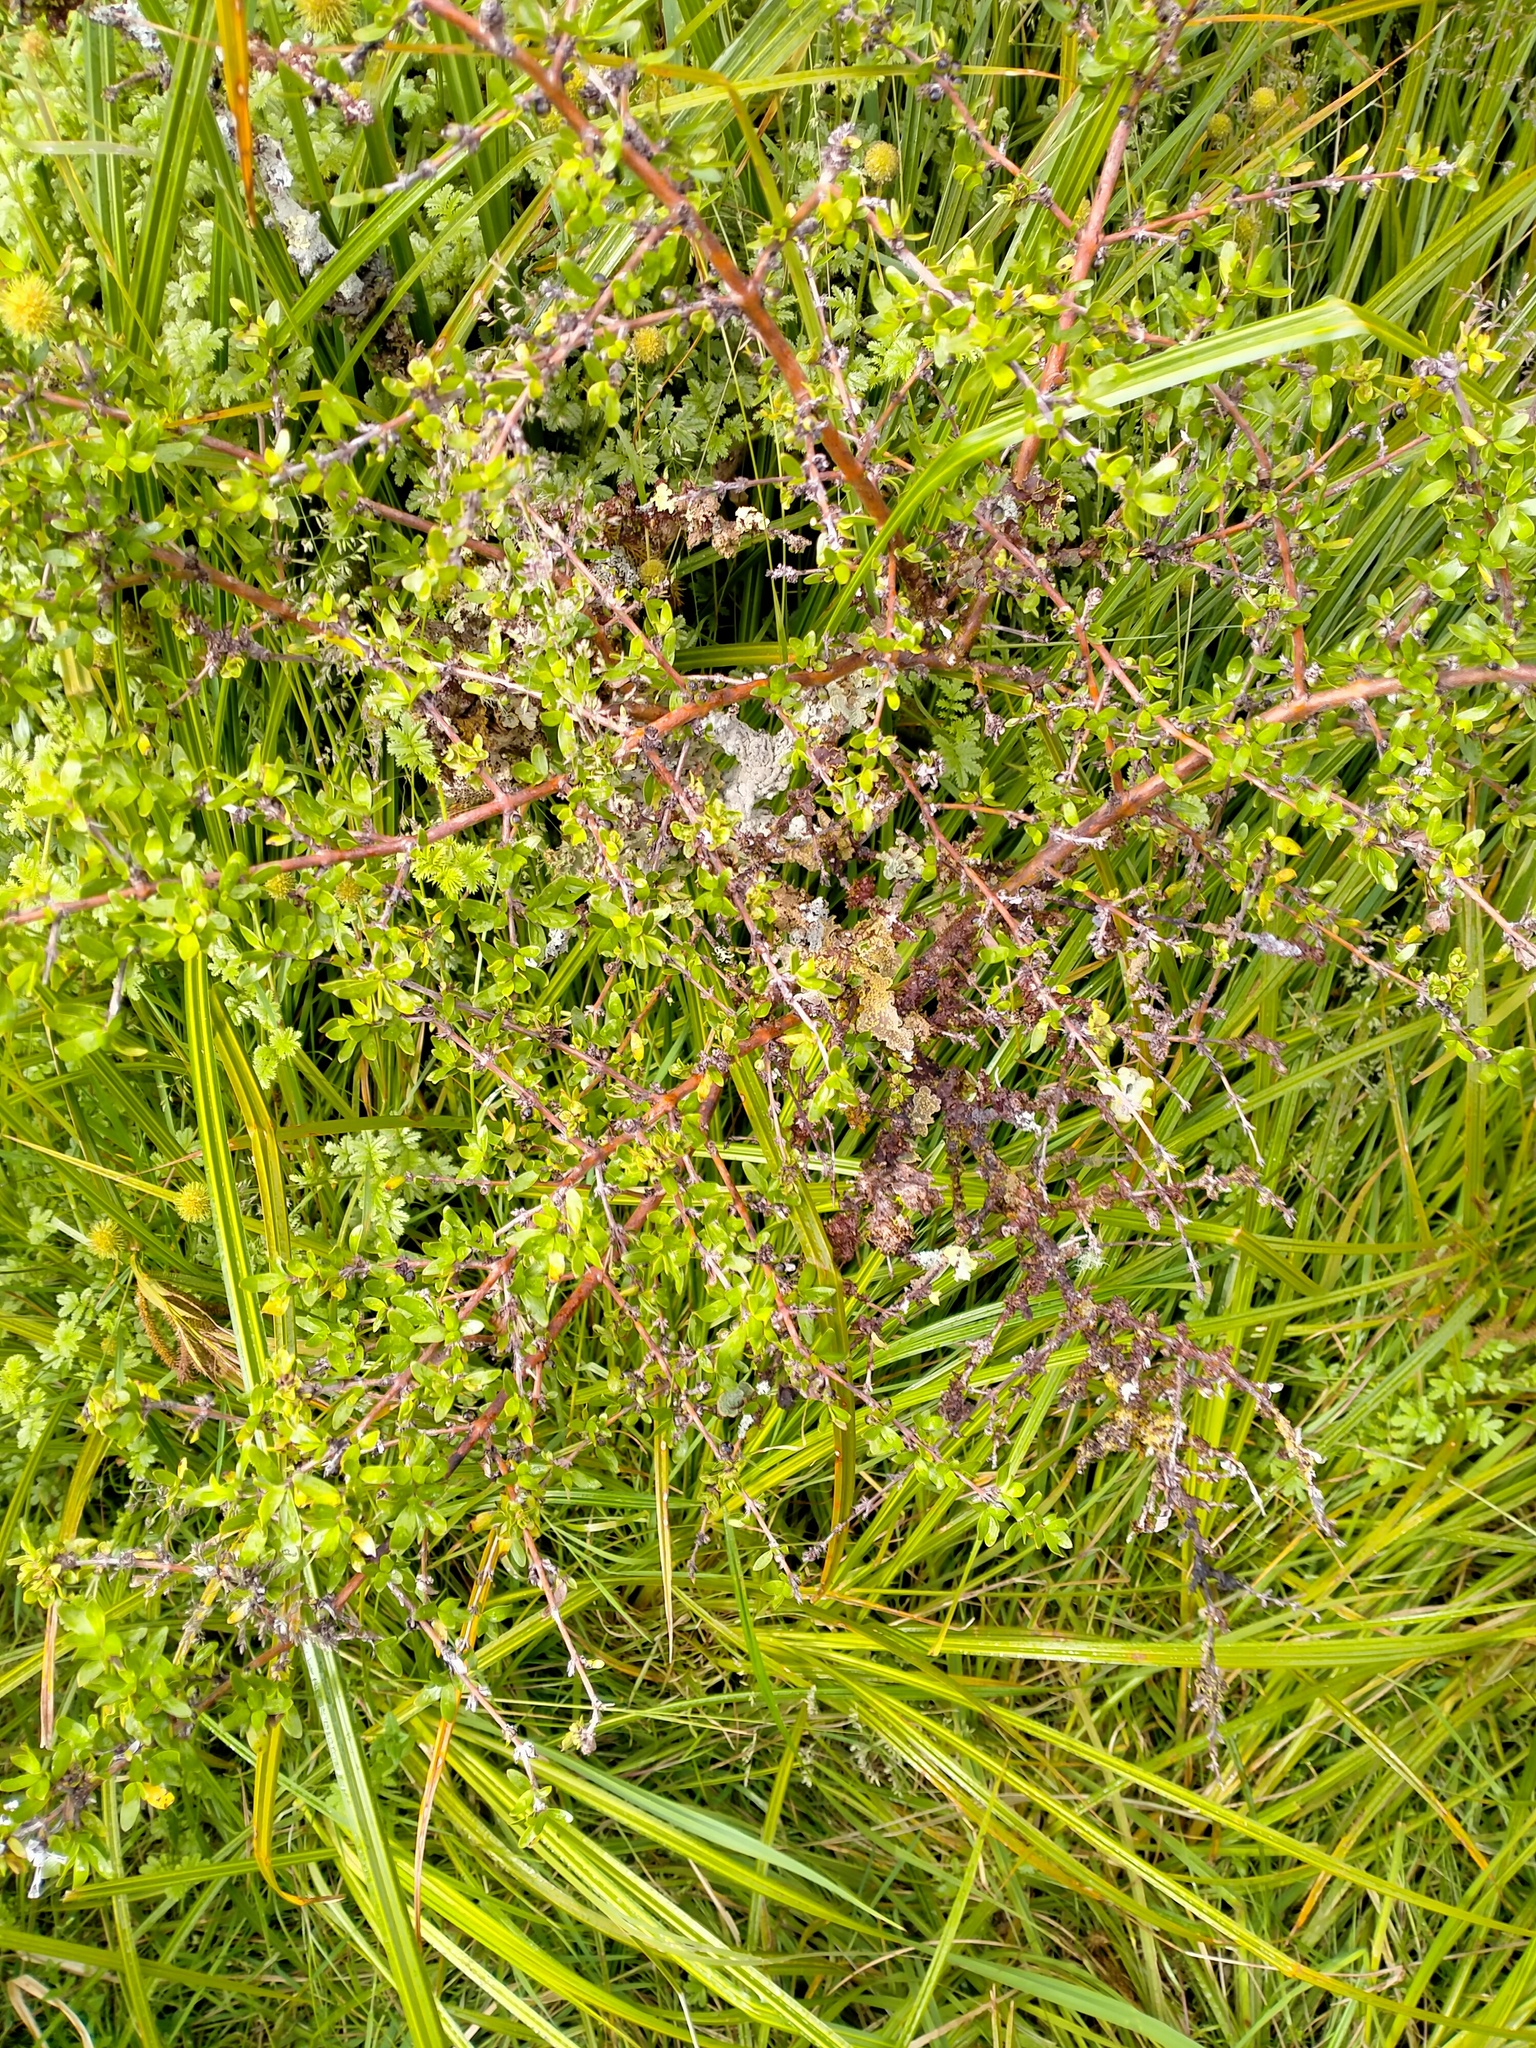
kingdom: Plantae
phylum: Tracheophyta
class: Magnoliopsida
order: Gentianales
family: Rubiaceae
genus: Coprosma
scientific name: Coprosma propinqua
